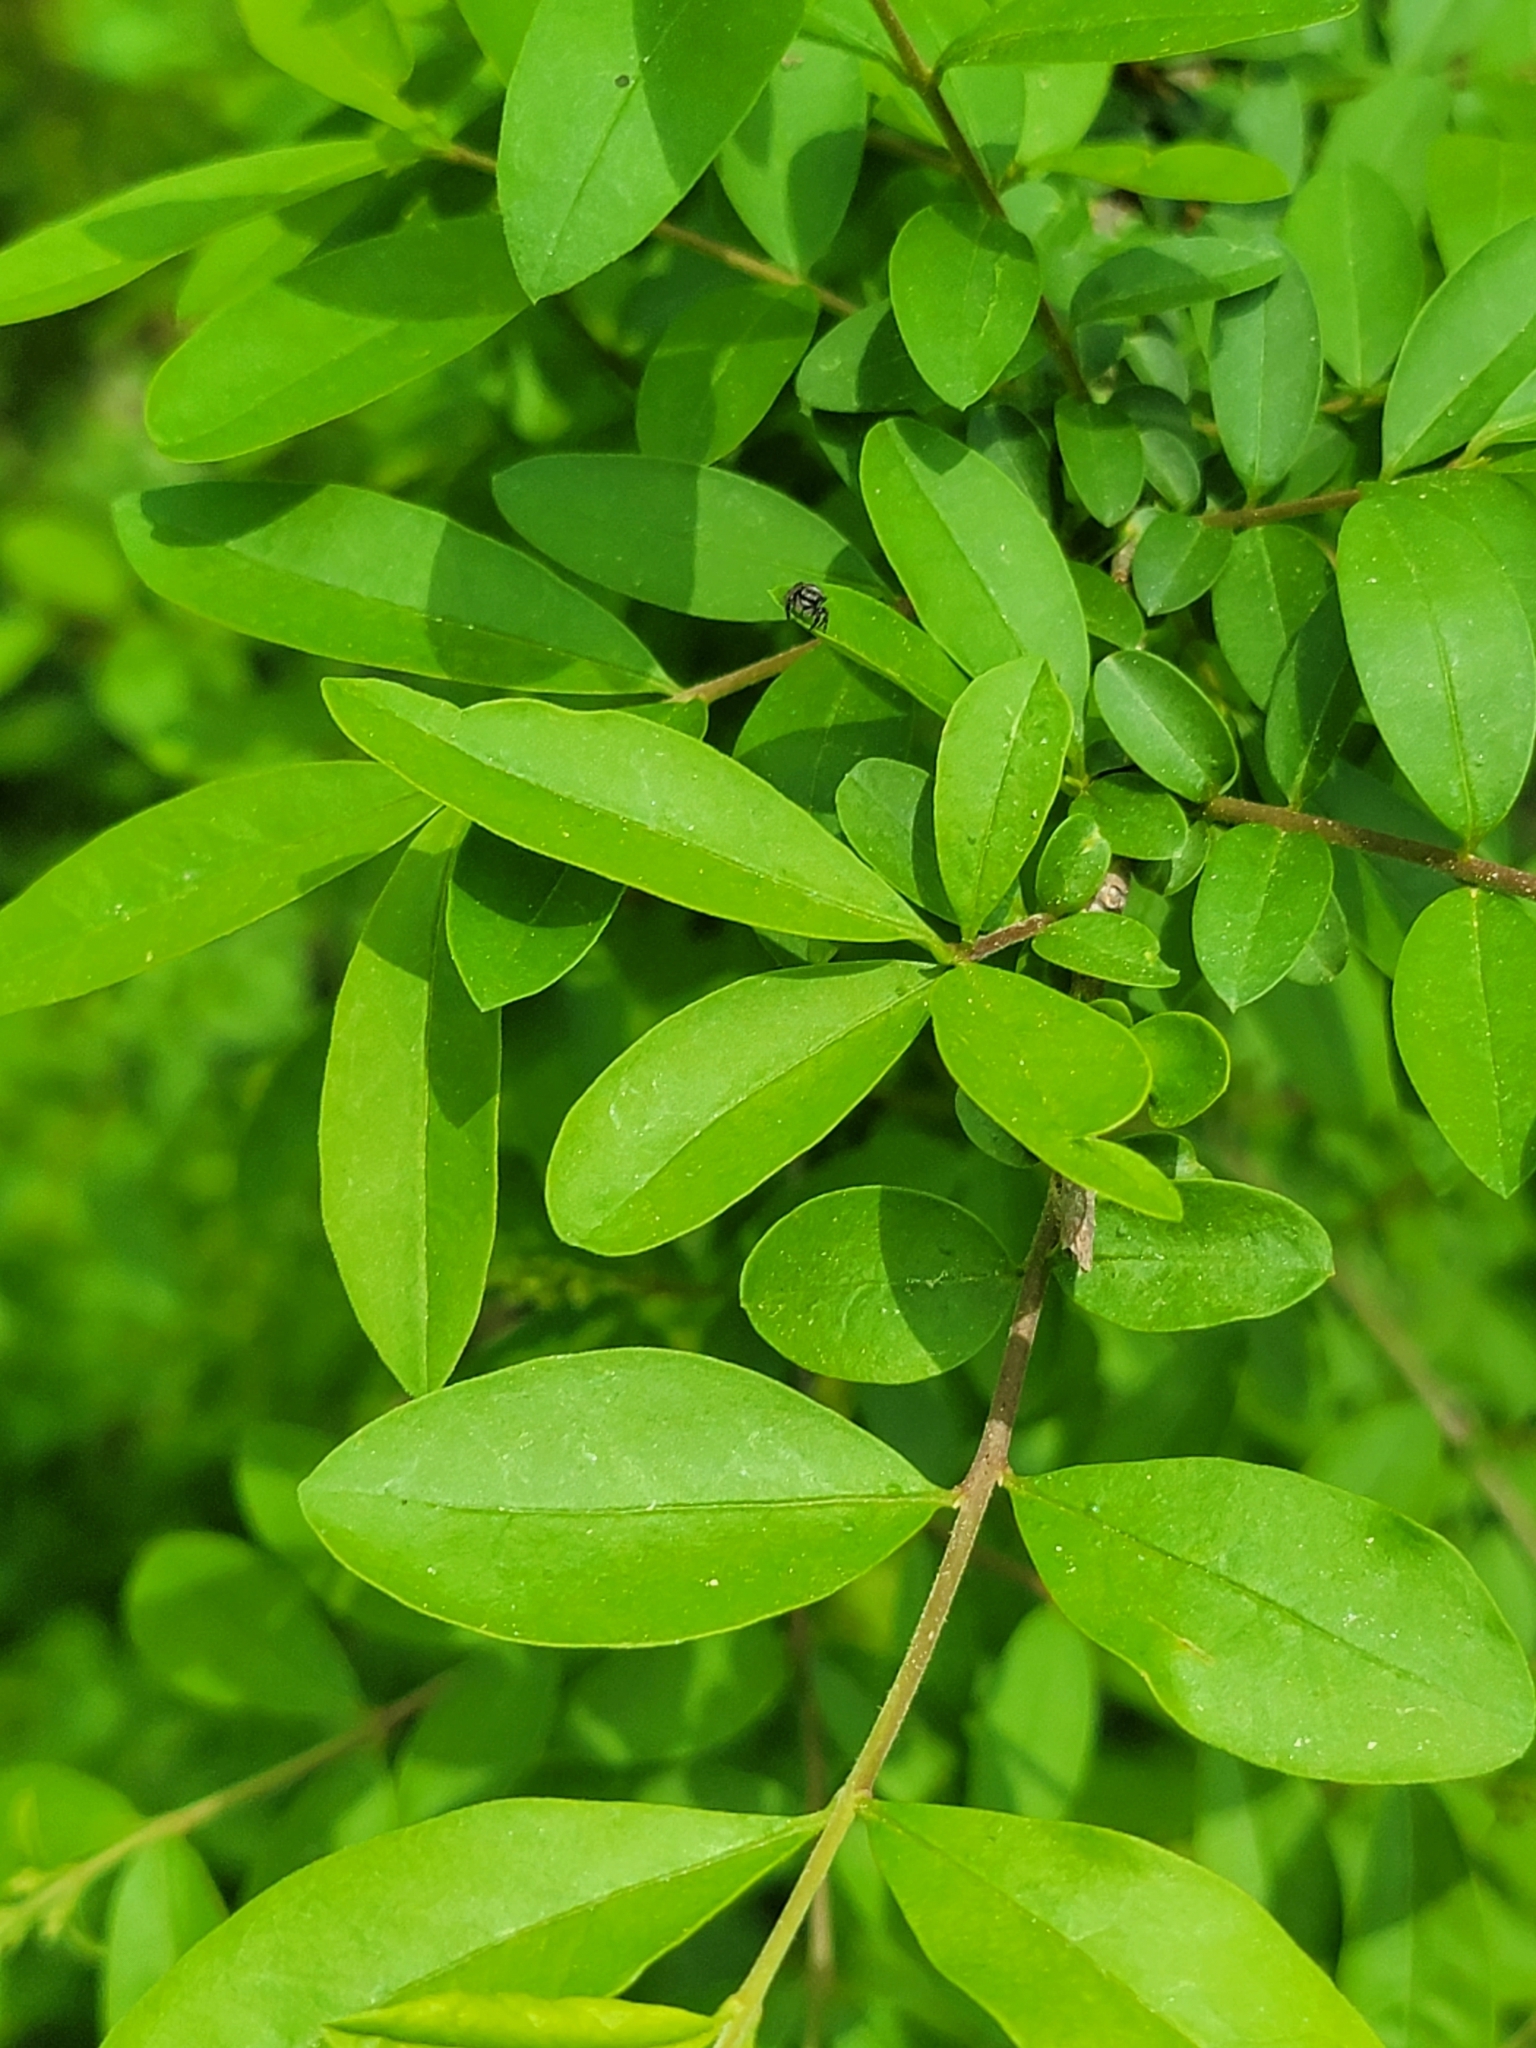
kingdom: Plantae
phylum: Tracheophyta
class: Magnoliopsida
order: Lamiales
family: Oleaceae
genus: Ligustrum
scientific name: Ligustrum obtusifolium
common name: Border privet
